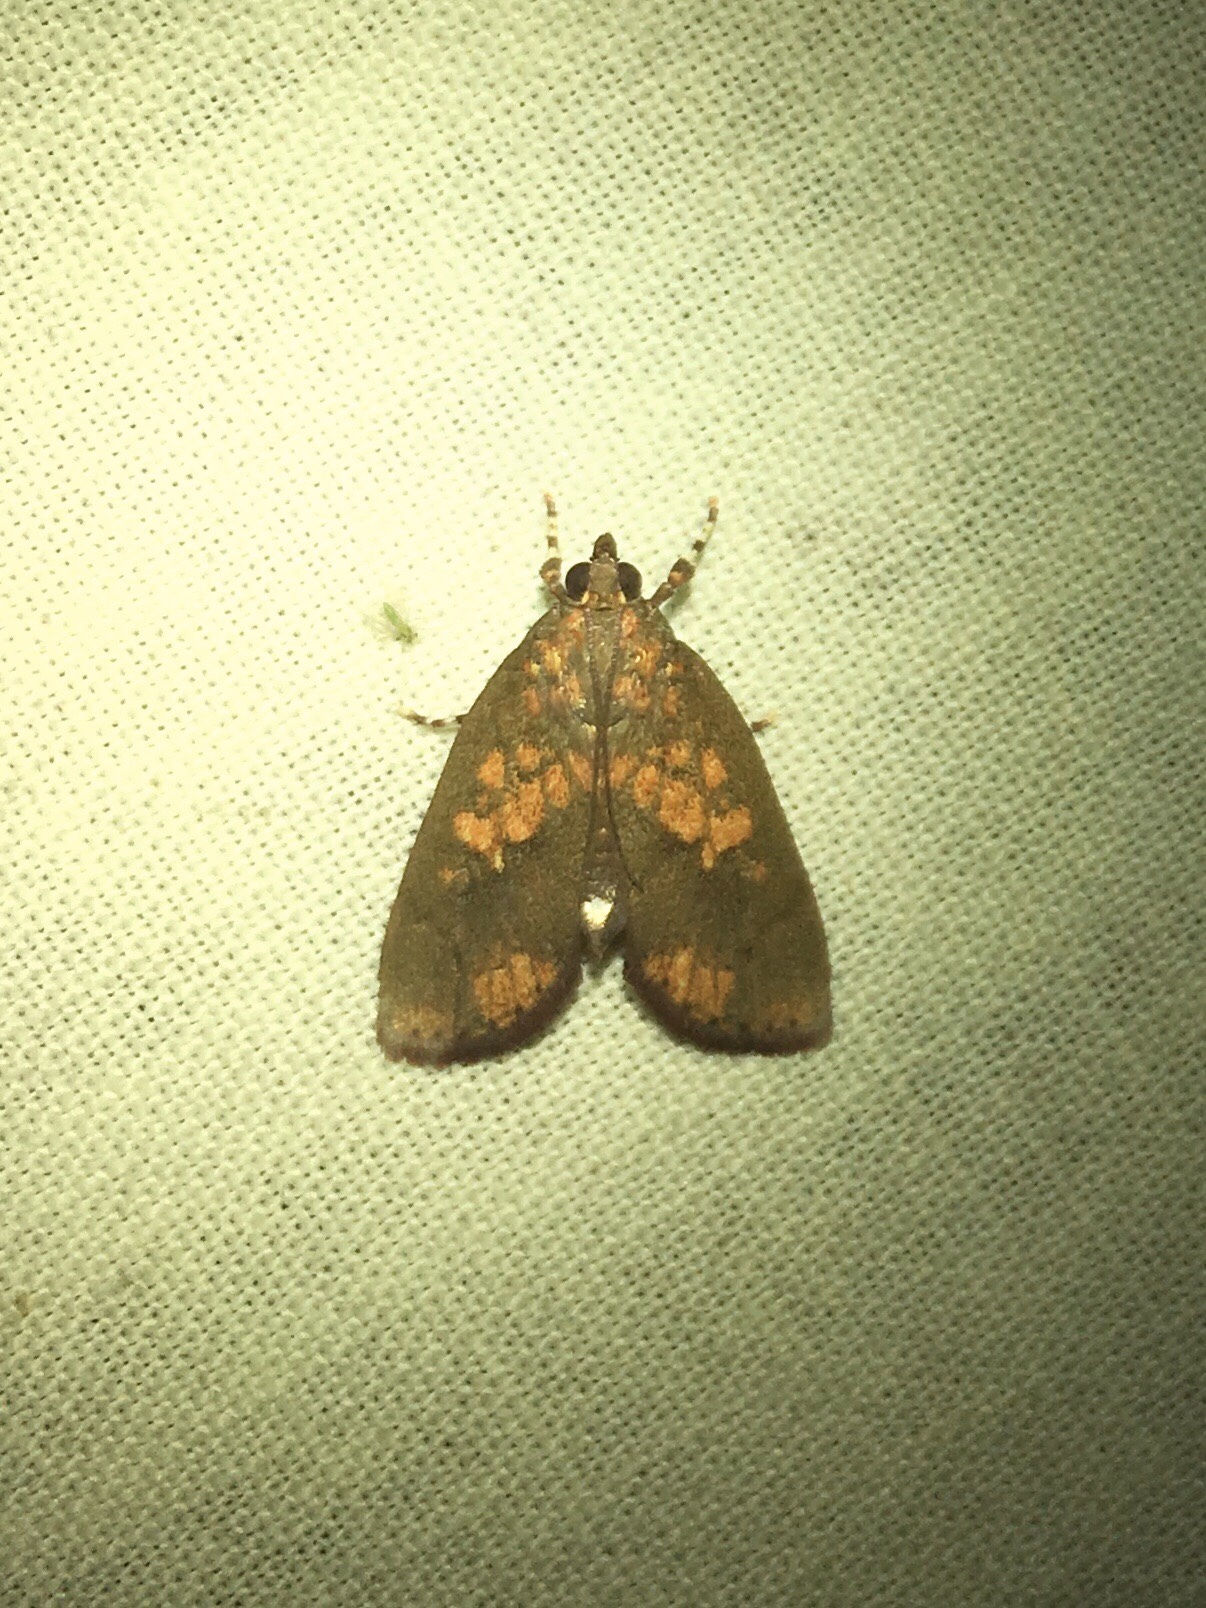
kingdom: Animalia
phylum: Arthropoda
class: Insecta
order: Lepidoptera
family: Crambidae
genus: Mimophobetron
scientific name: Mimophobetron pyropsalis
